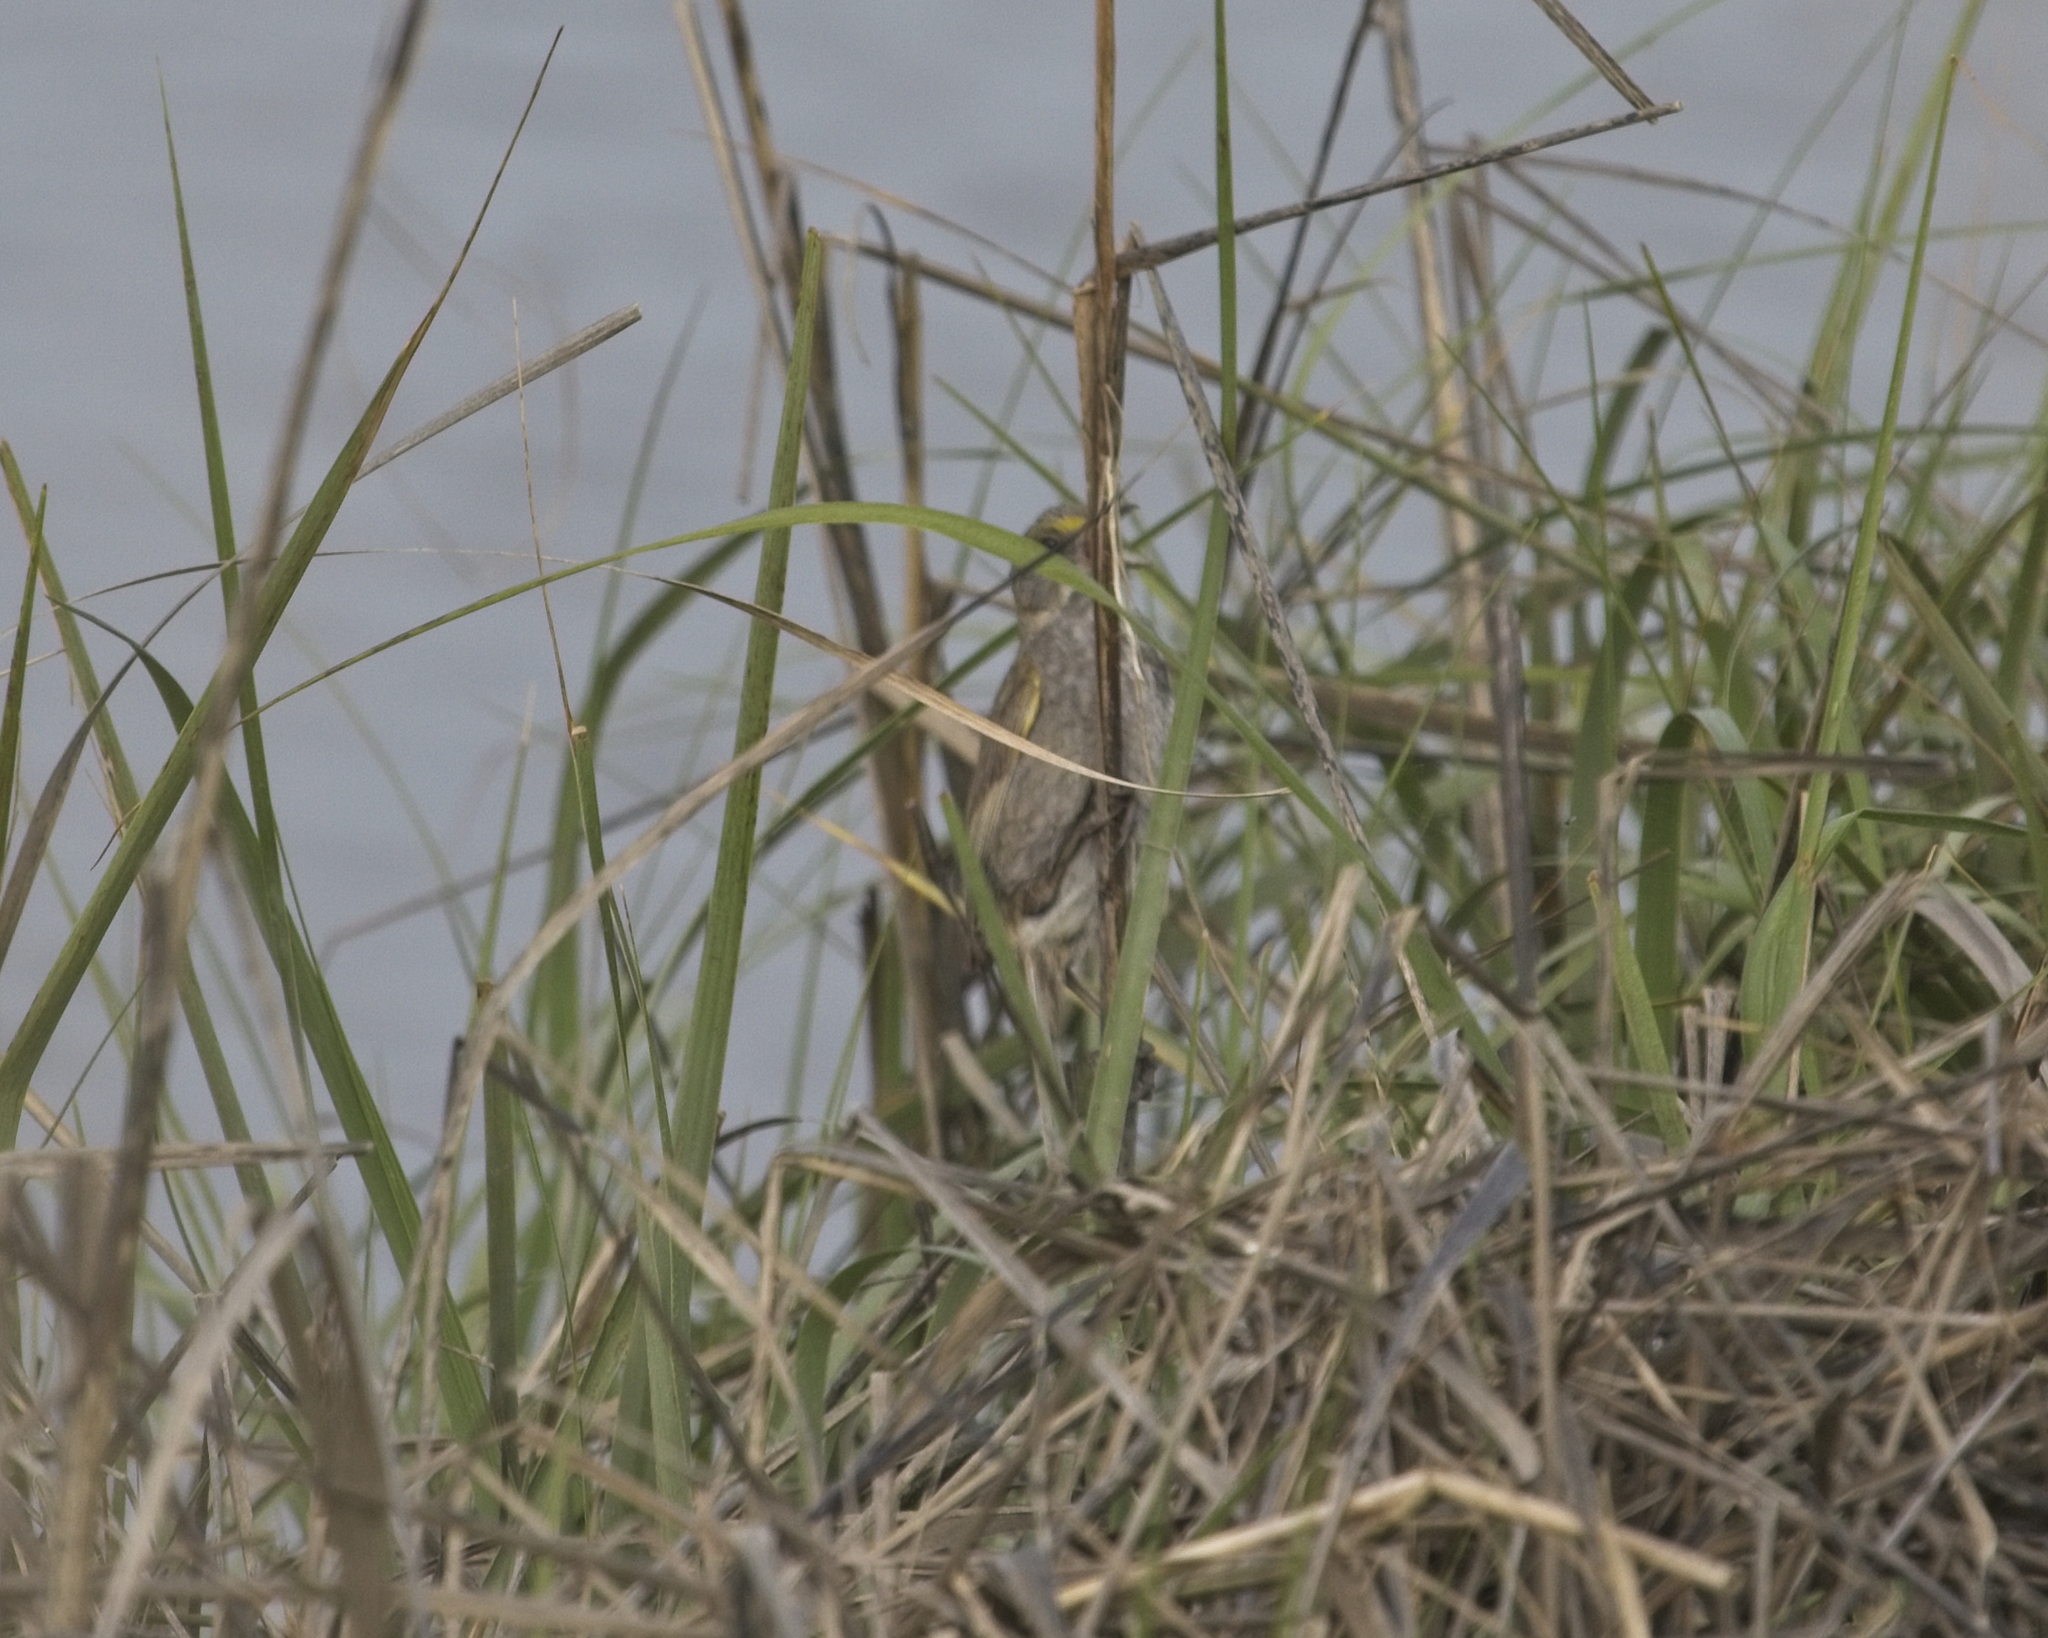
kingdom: Animalia
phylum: Chordata
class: Aves
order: Passeriformes
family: Passerellidae
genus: Ammospiza
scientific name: Ammospiza maritima
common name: Seaside sparrow
